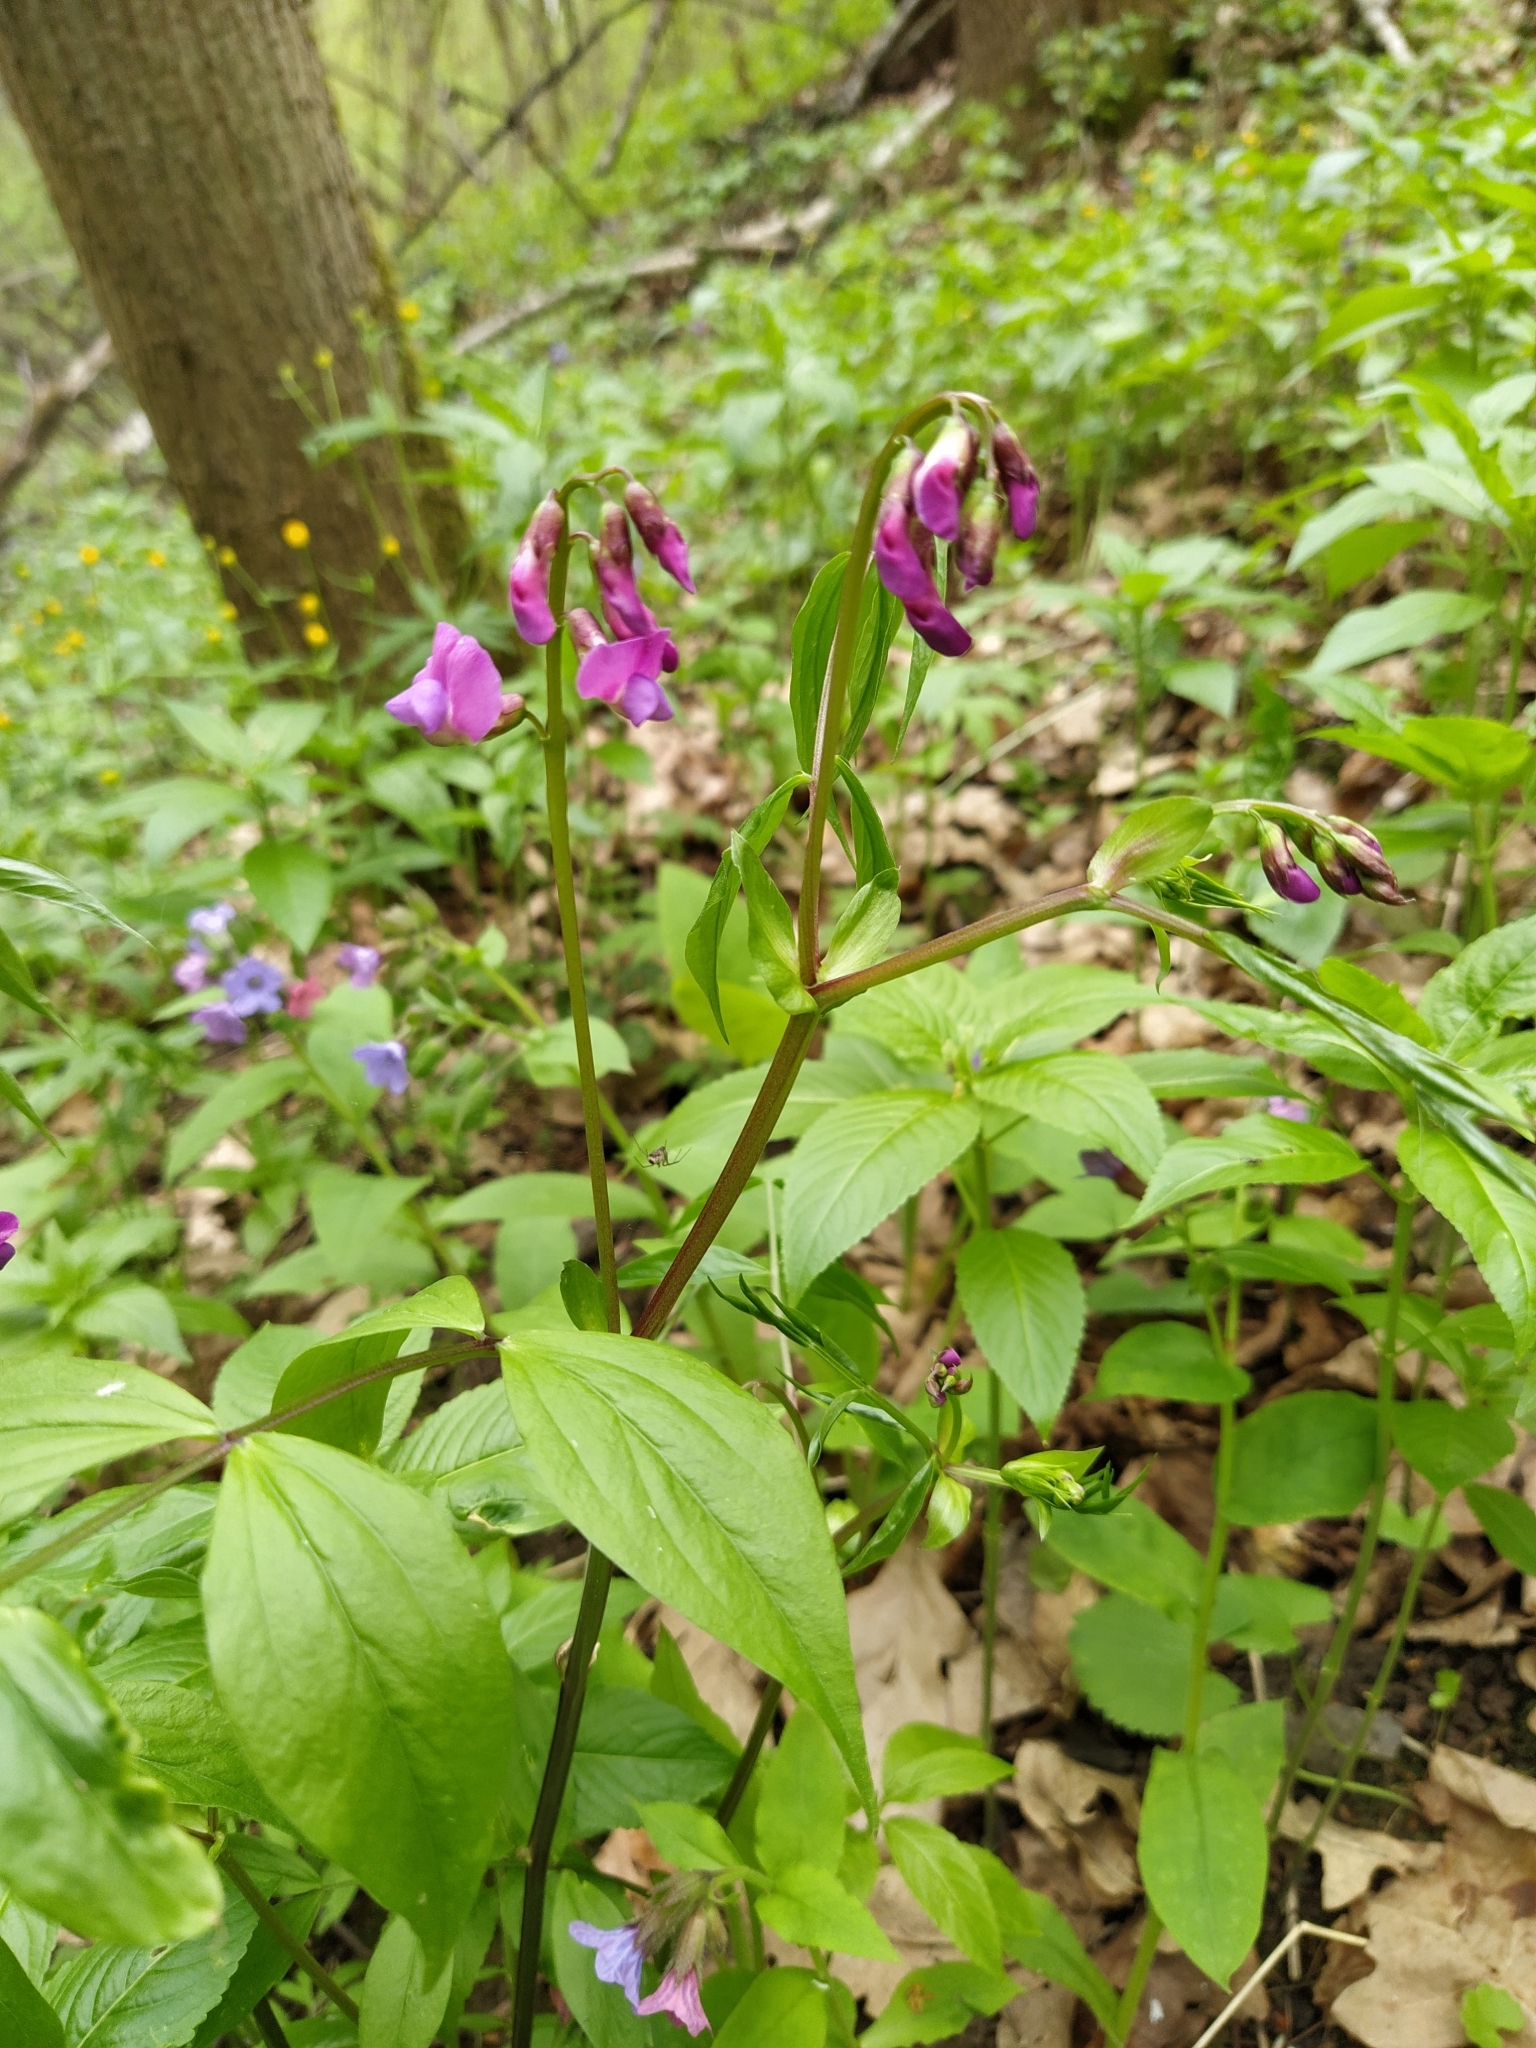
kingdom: Plantae
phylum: Tracheophyta
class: Magnoliopsida
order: Fabales
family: Fabaceae
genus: Lathyrus
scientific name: Lathyrus vernus
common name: Spring pea
